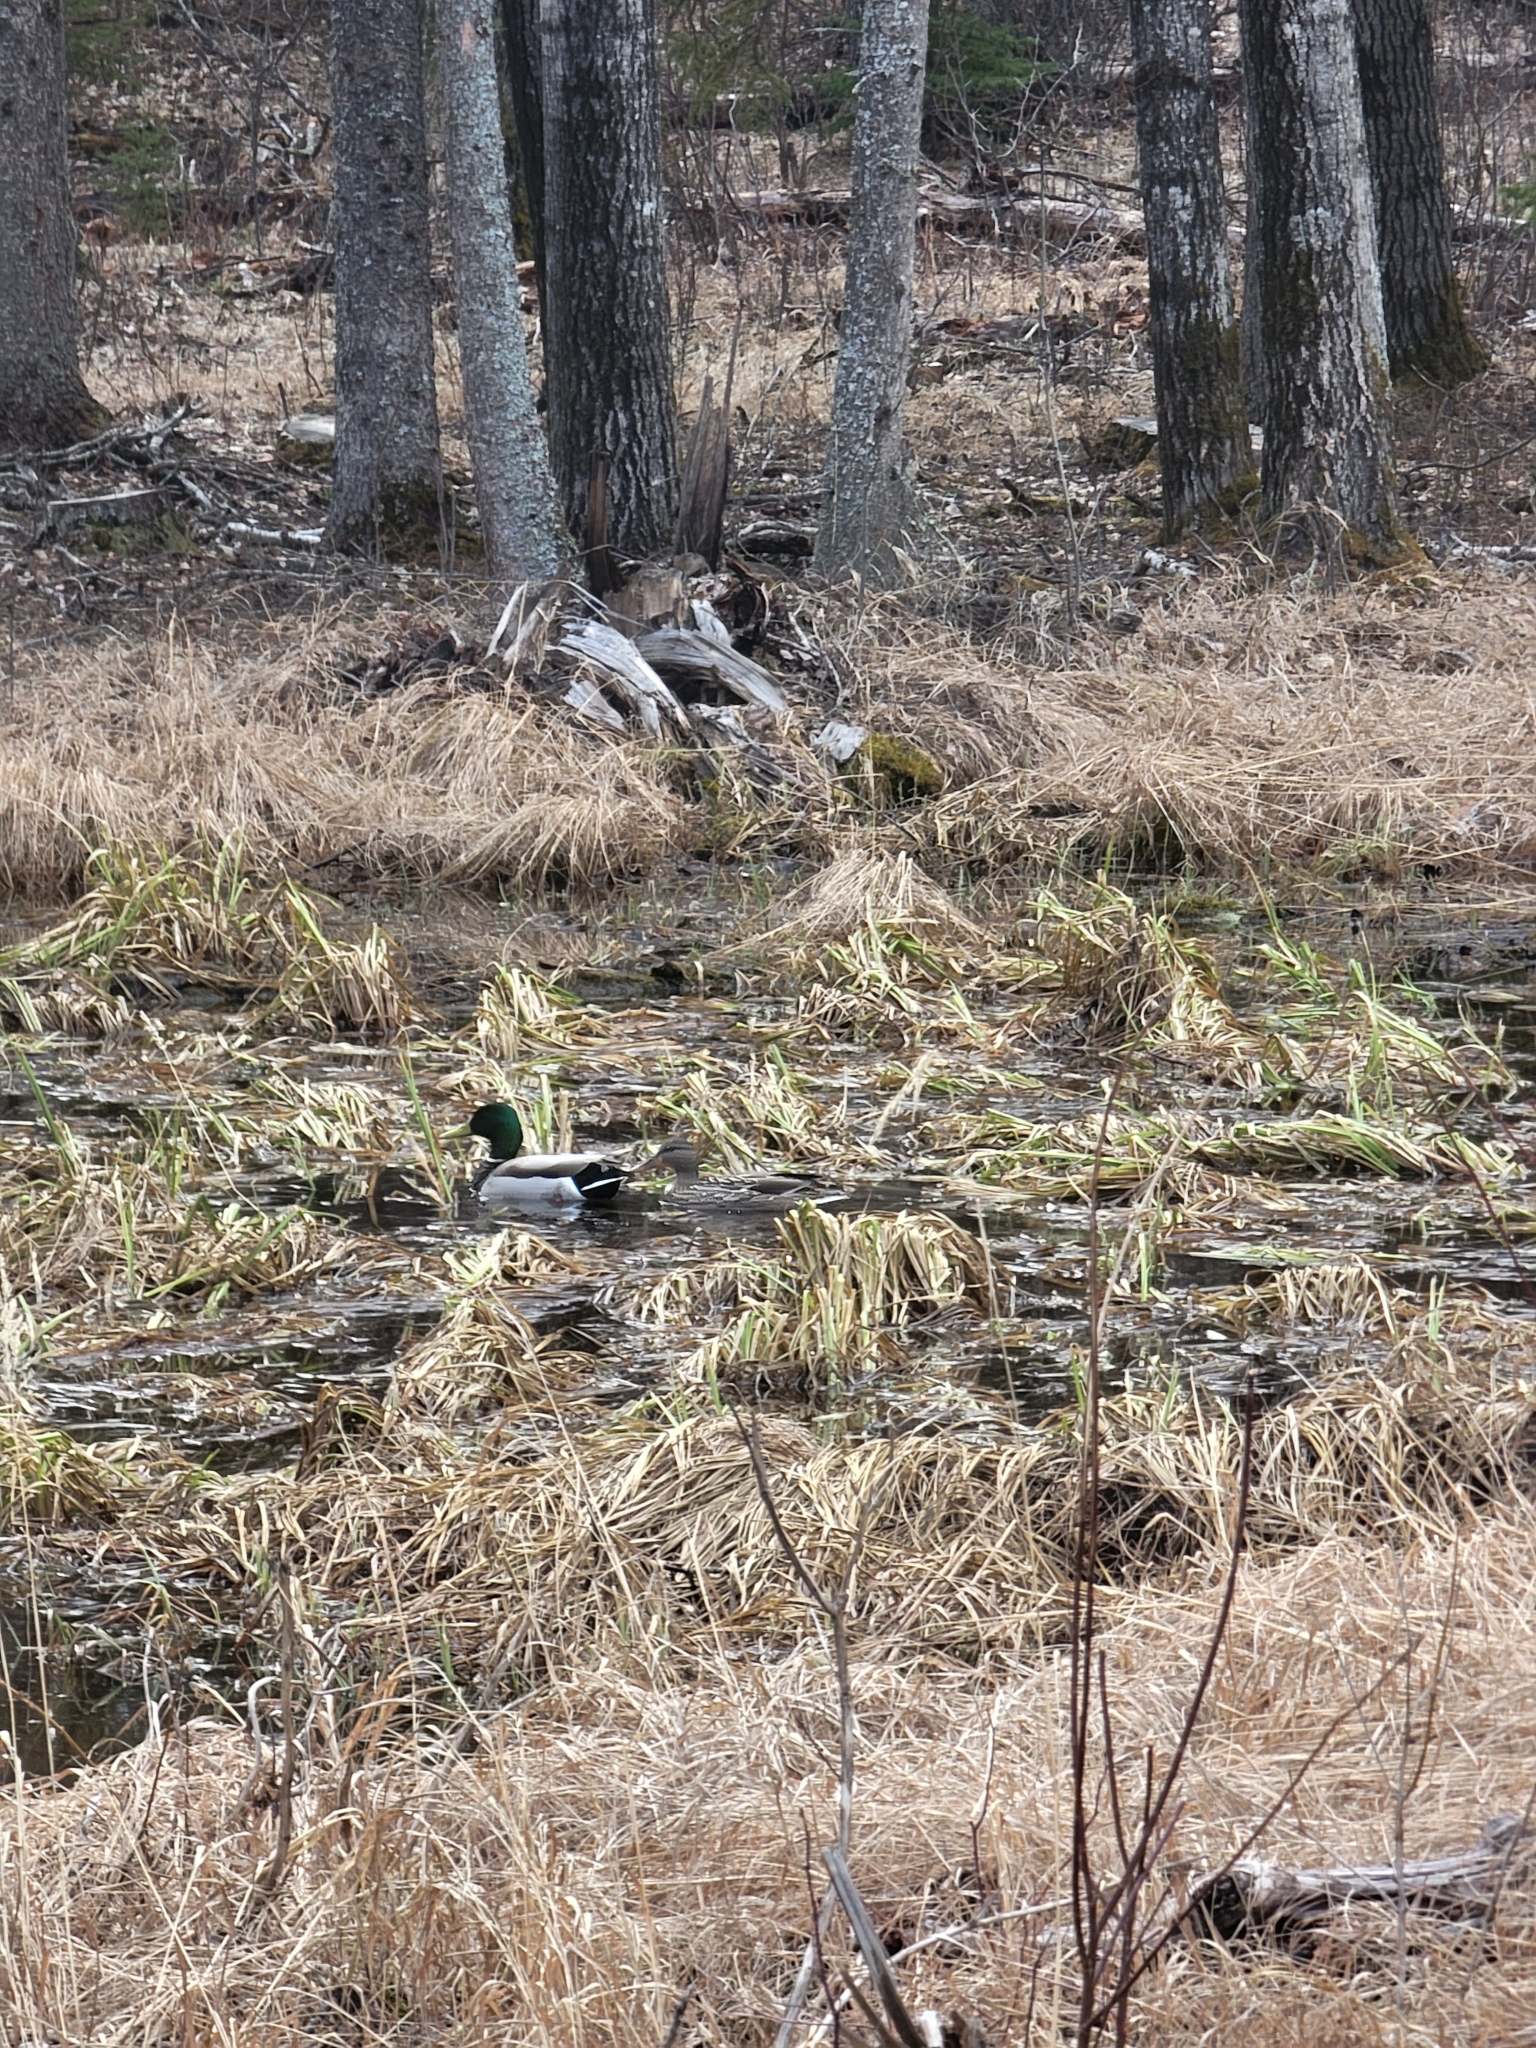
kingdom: Animalia
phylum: Chordata
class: Aves
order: Anseriformes
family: Anatidae
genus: Anas
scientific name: Anas platyrhynchos
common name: Mallard
